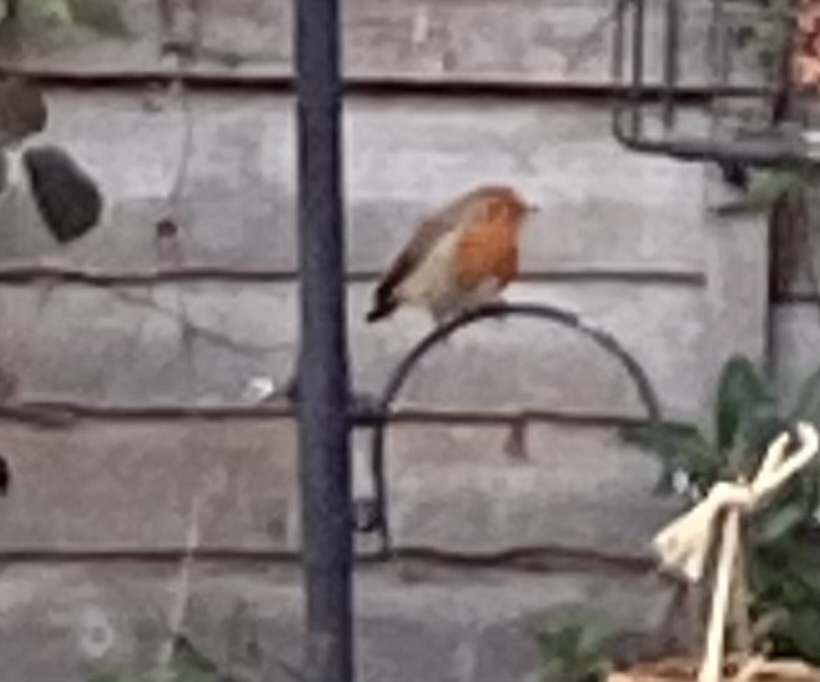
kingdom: Animalia
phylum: Chordata
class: Aves
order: Passeriformes
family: Muscicapidae
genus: Erithacus
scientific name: Erithacus rubecula
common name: European robin
